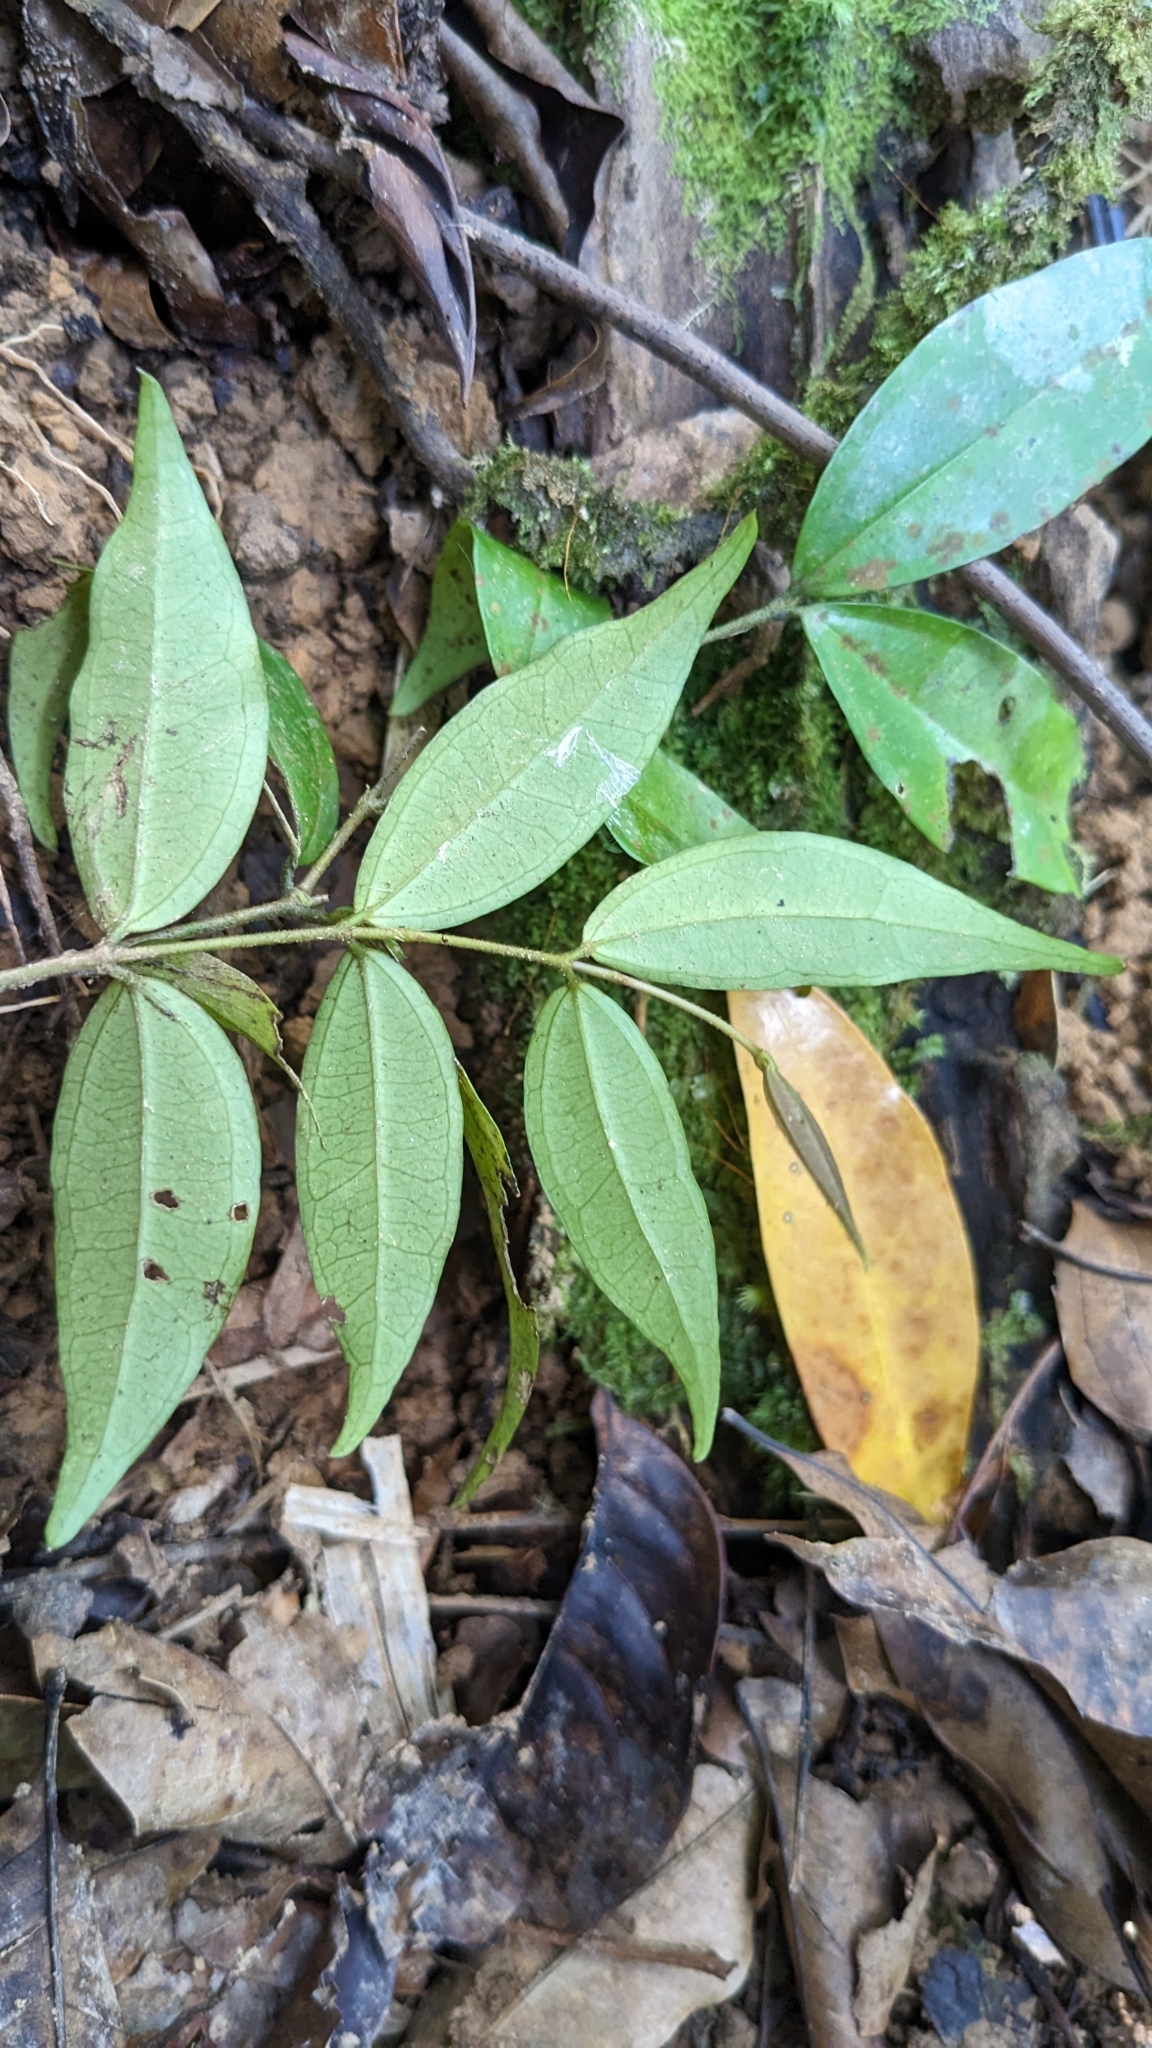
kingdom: Plantae
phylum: Tracheophyta
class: Magnoliopsida
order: Gentianales
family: Loganiaceae
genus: Strychnos
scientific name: Strychnos cathayensis
